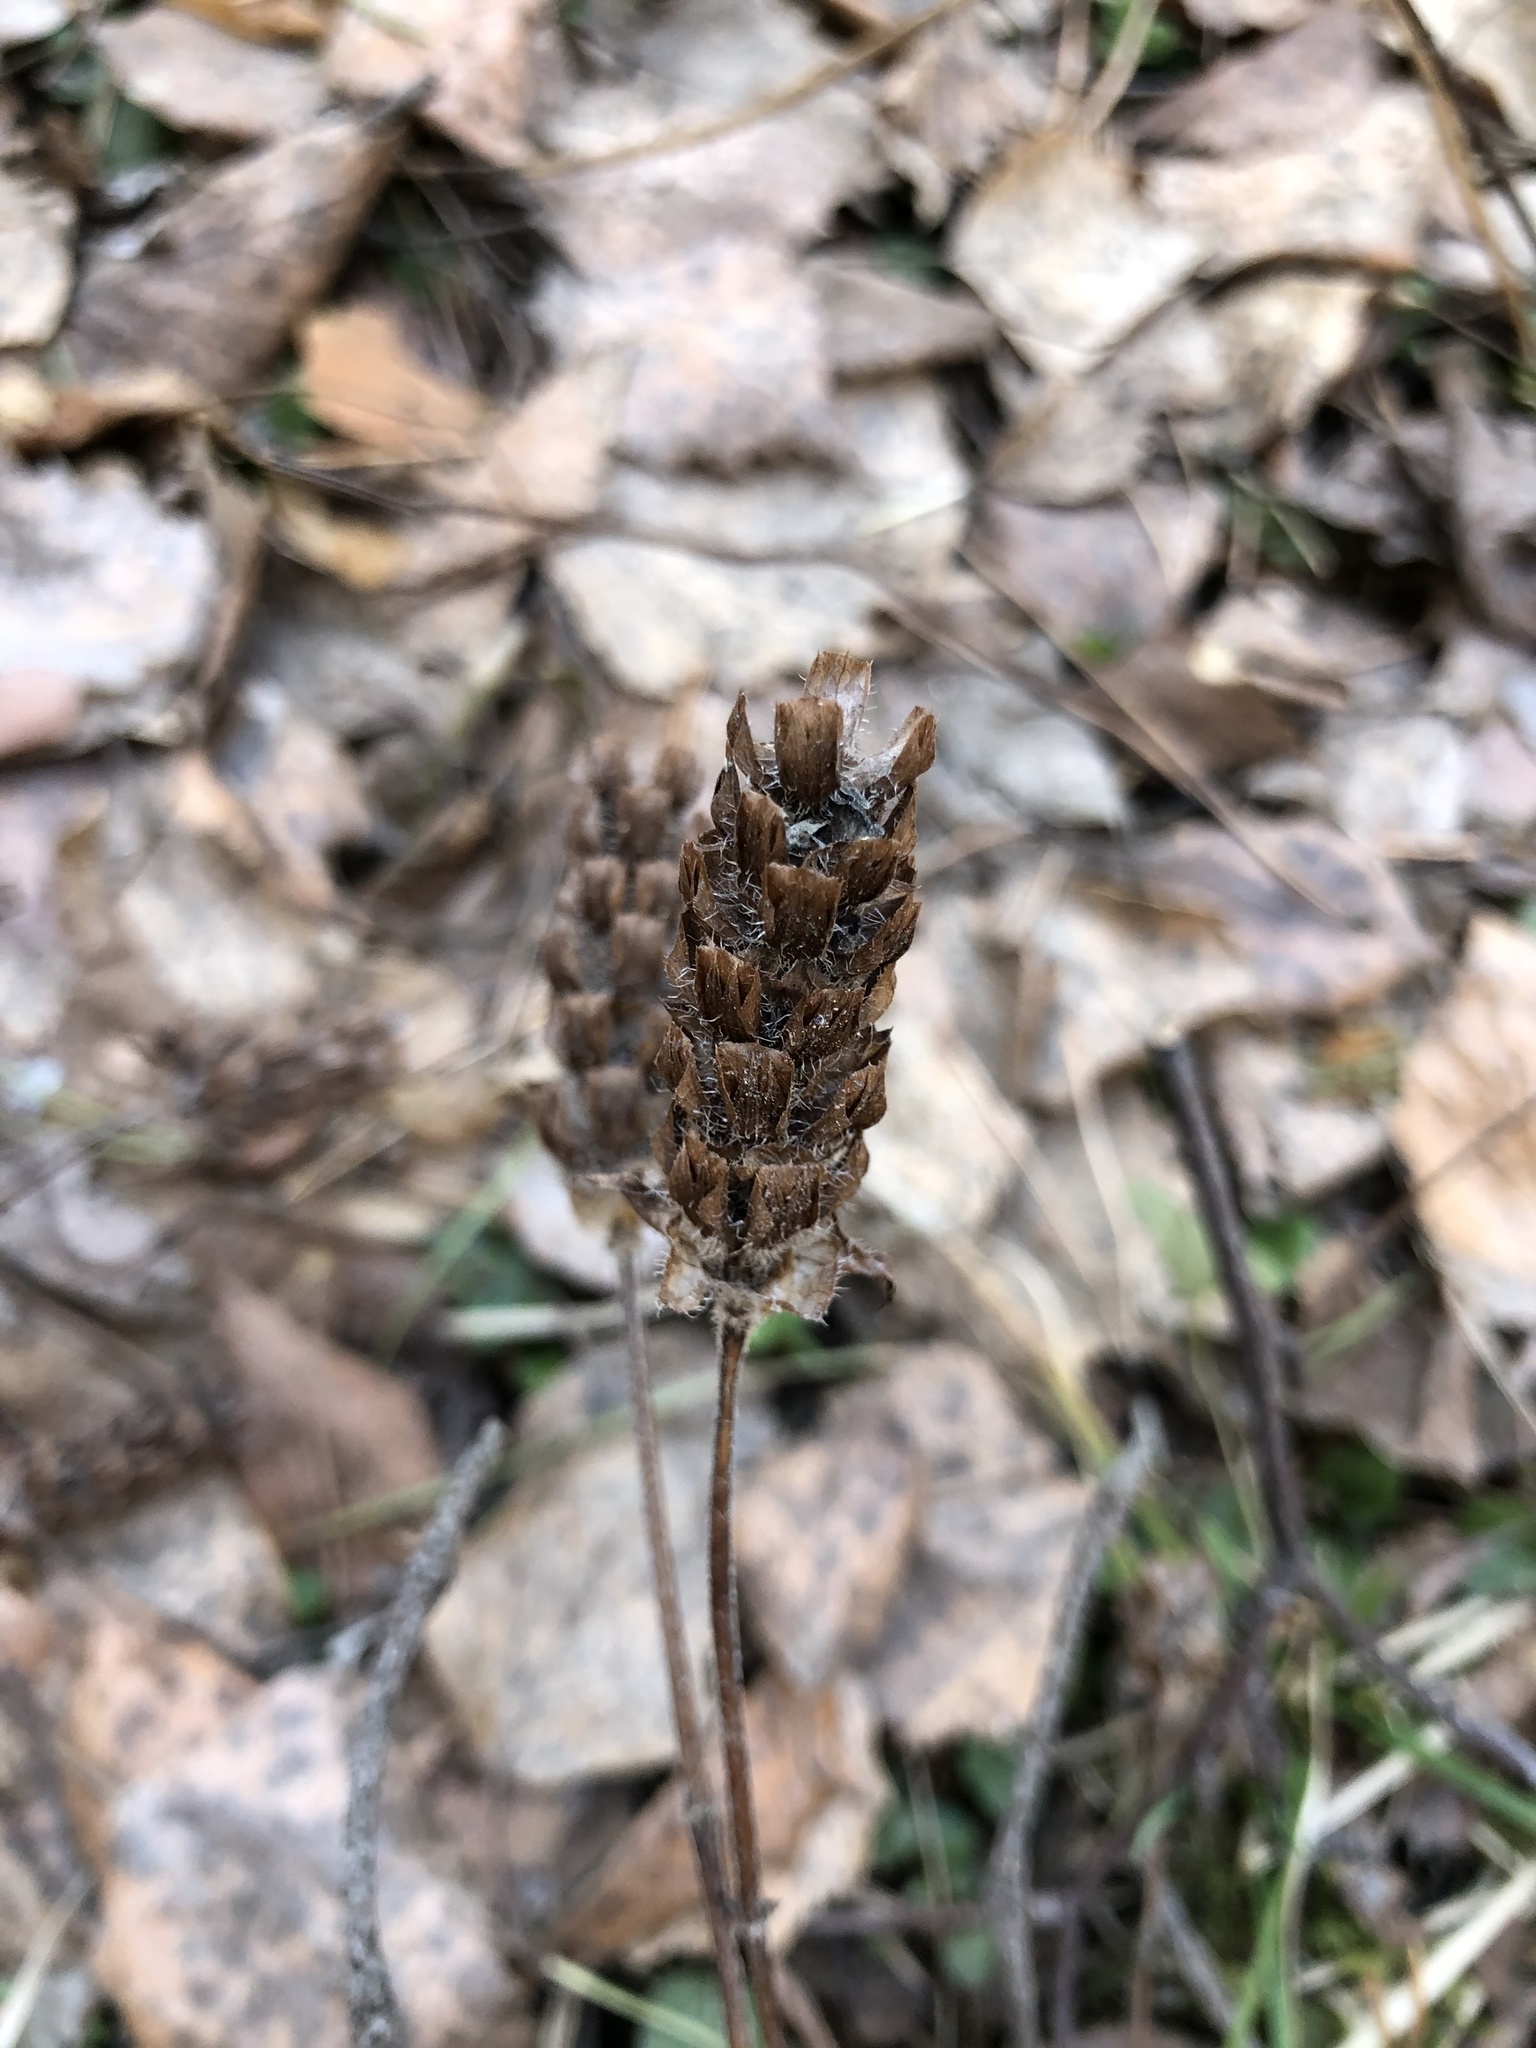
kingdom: Plantae
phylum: Tracheophyta
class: Magnoliopsida
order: Lamiales
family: Lamiaceae
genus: Prunella
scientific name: Prunella vulgaris
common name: Heal-all
